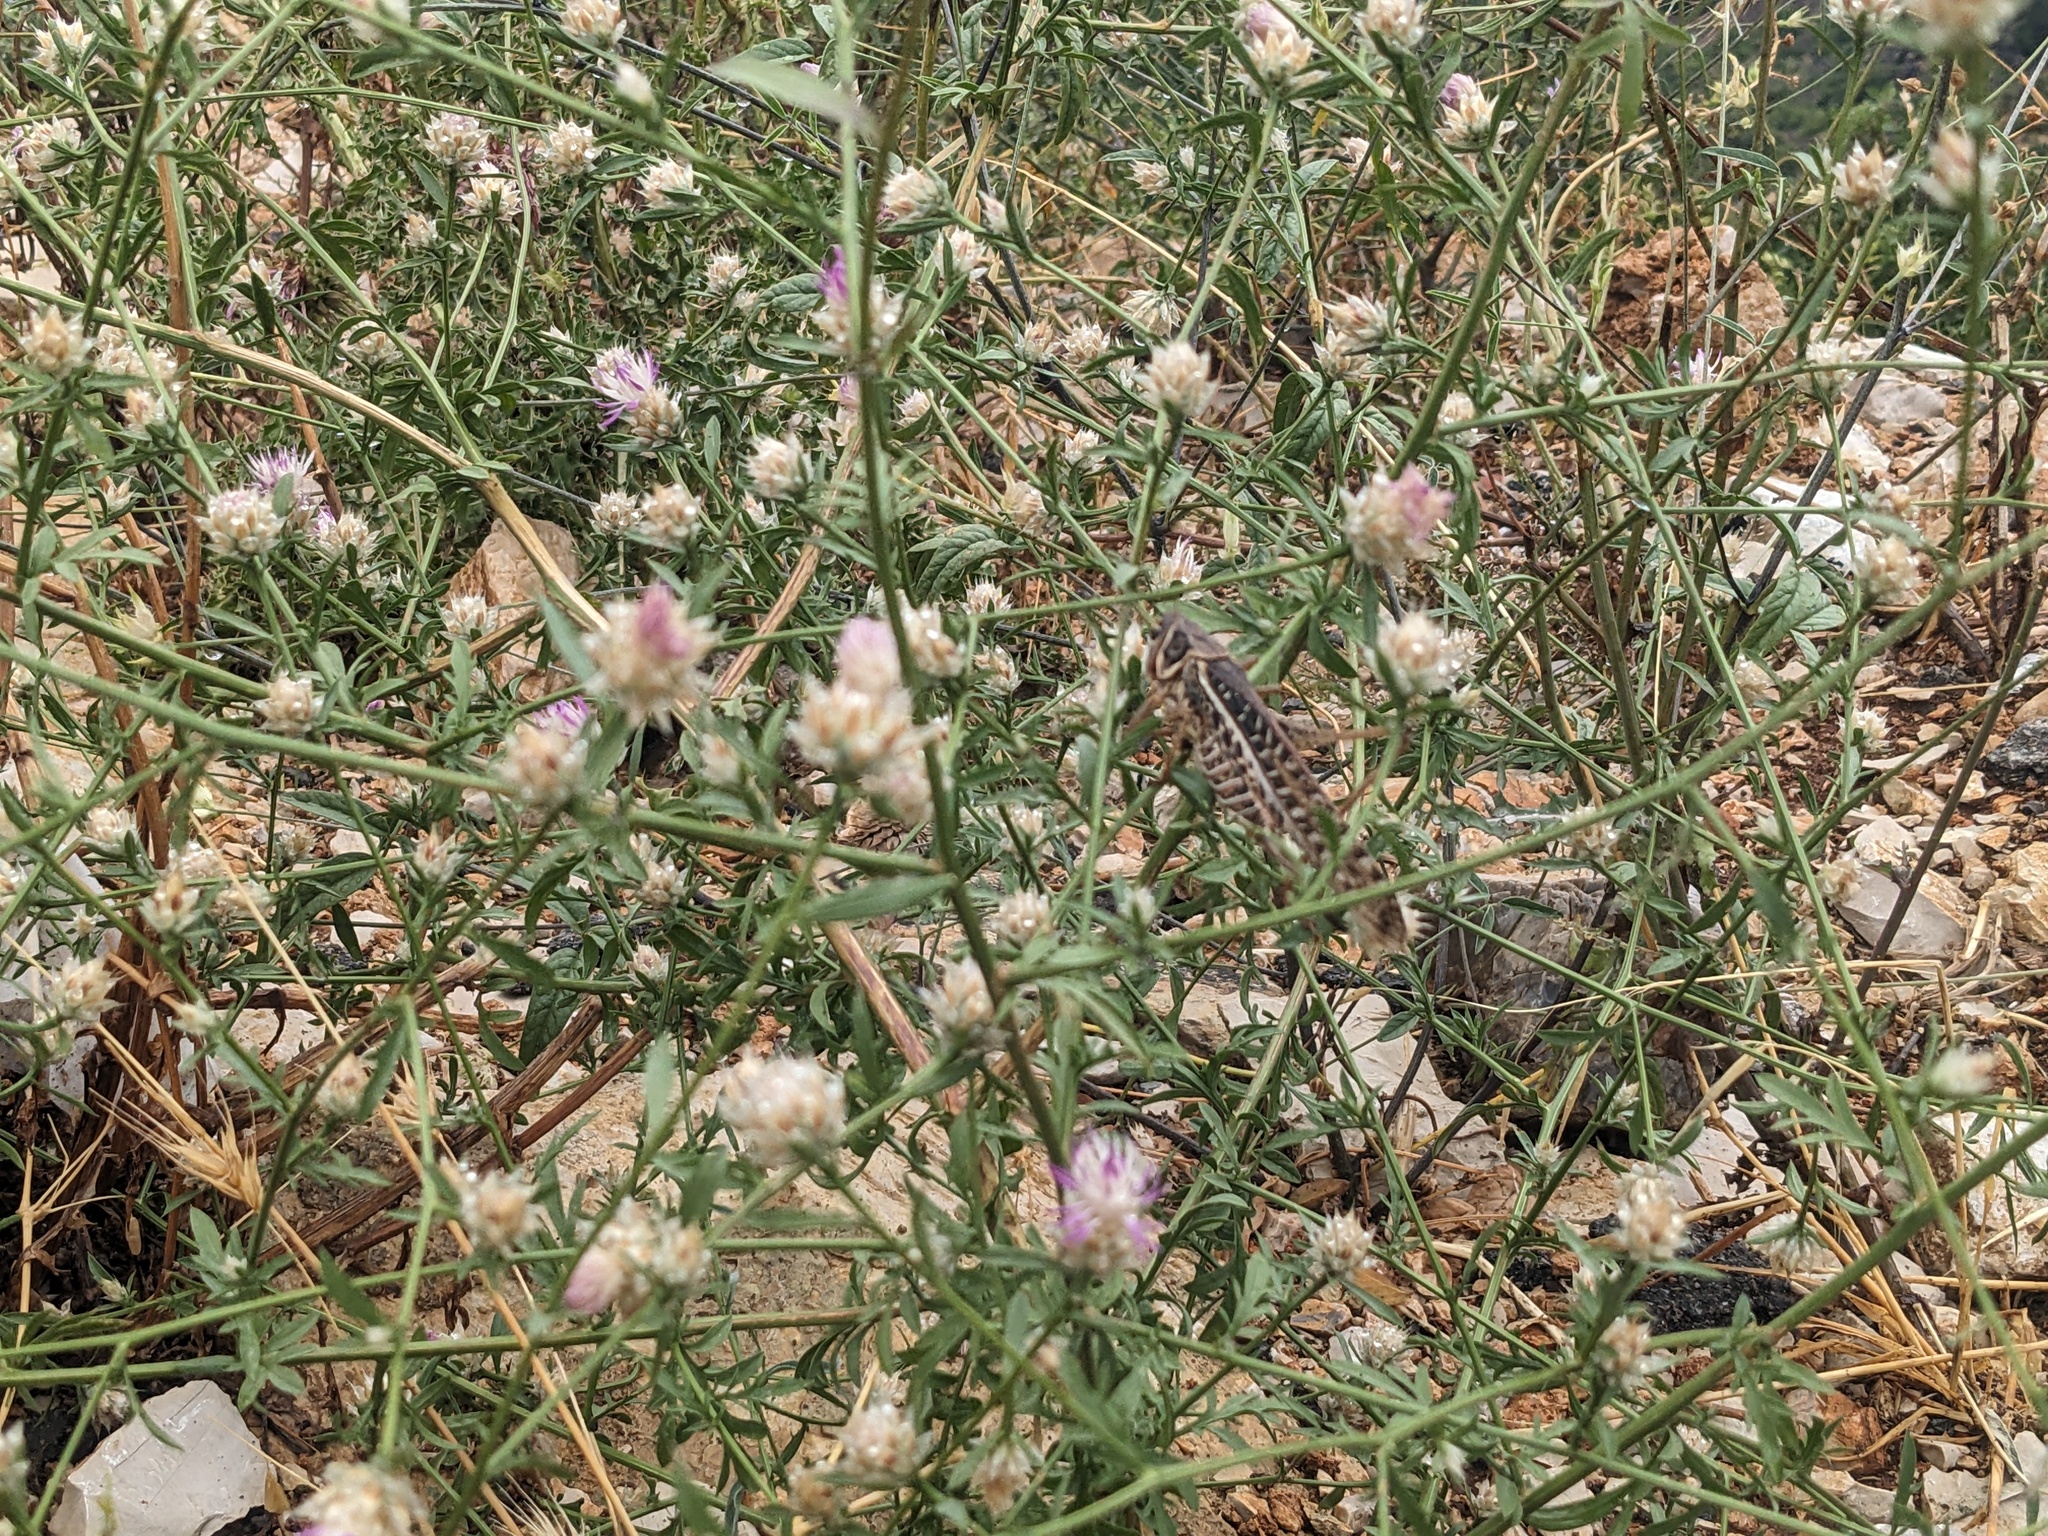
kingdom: Animalia
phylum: Arthropoda
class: Insecta
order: Orthoptera
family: Tettigoniidae
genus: Decticus
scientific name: Decticus albifrons
